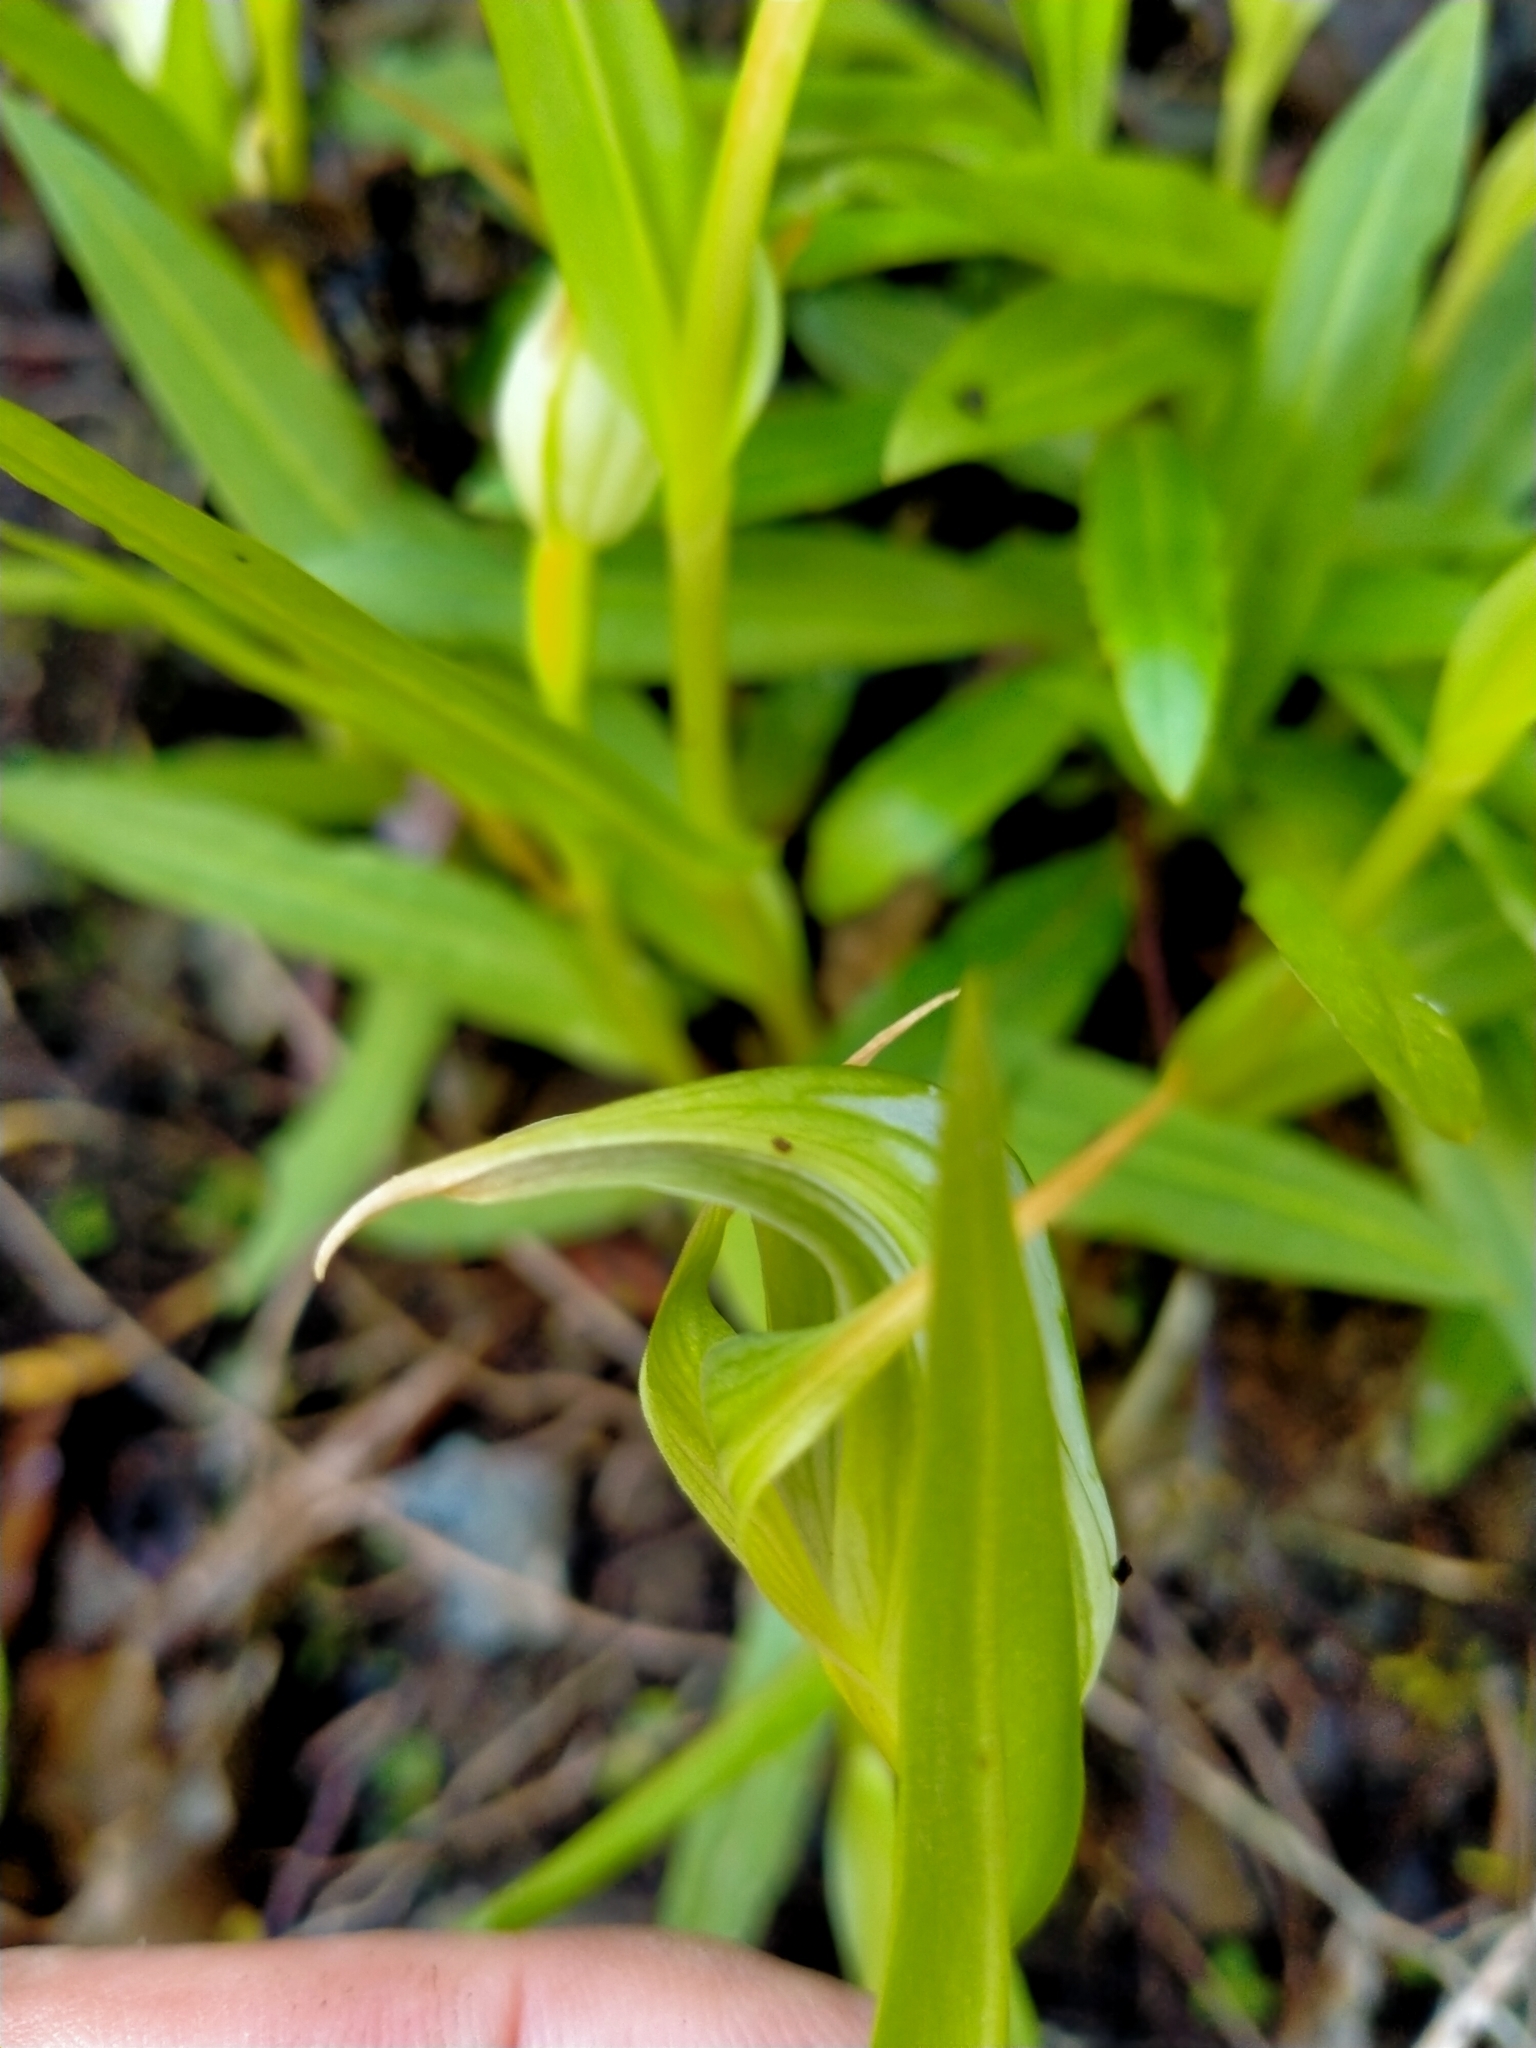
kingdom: Plantae
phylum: Tracheophyta
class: Liliopsida
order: Asparagales
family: Orchidaceae
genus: Pterostylis
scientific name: Pterostylis montana
